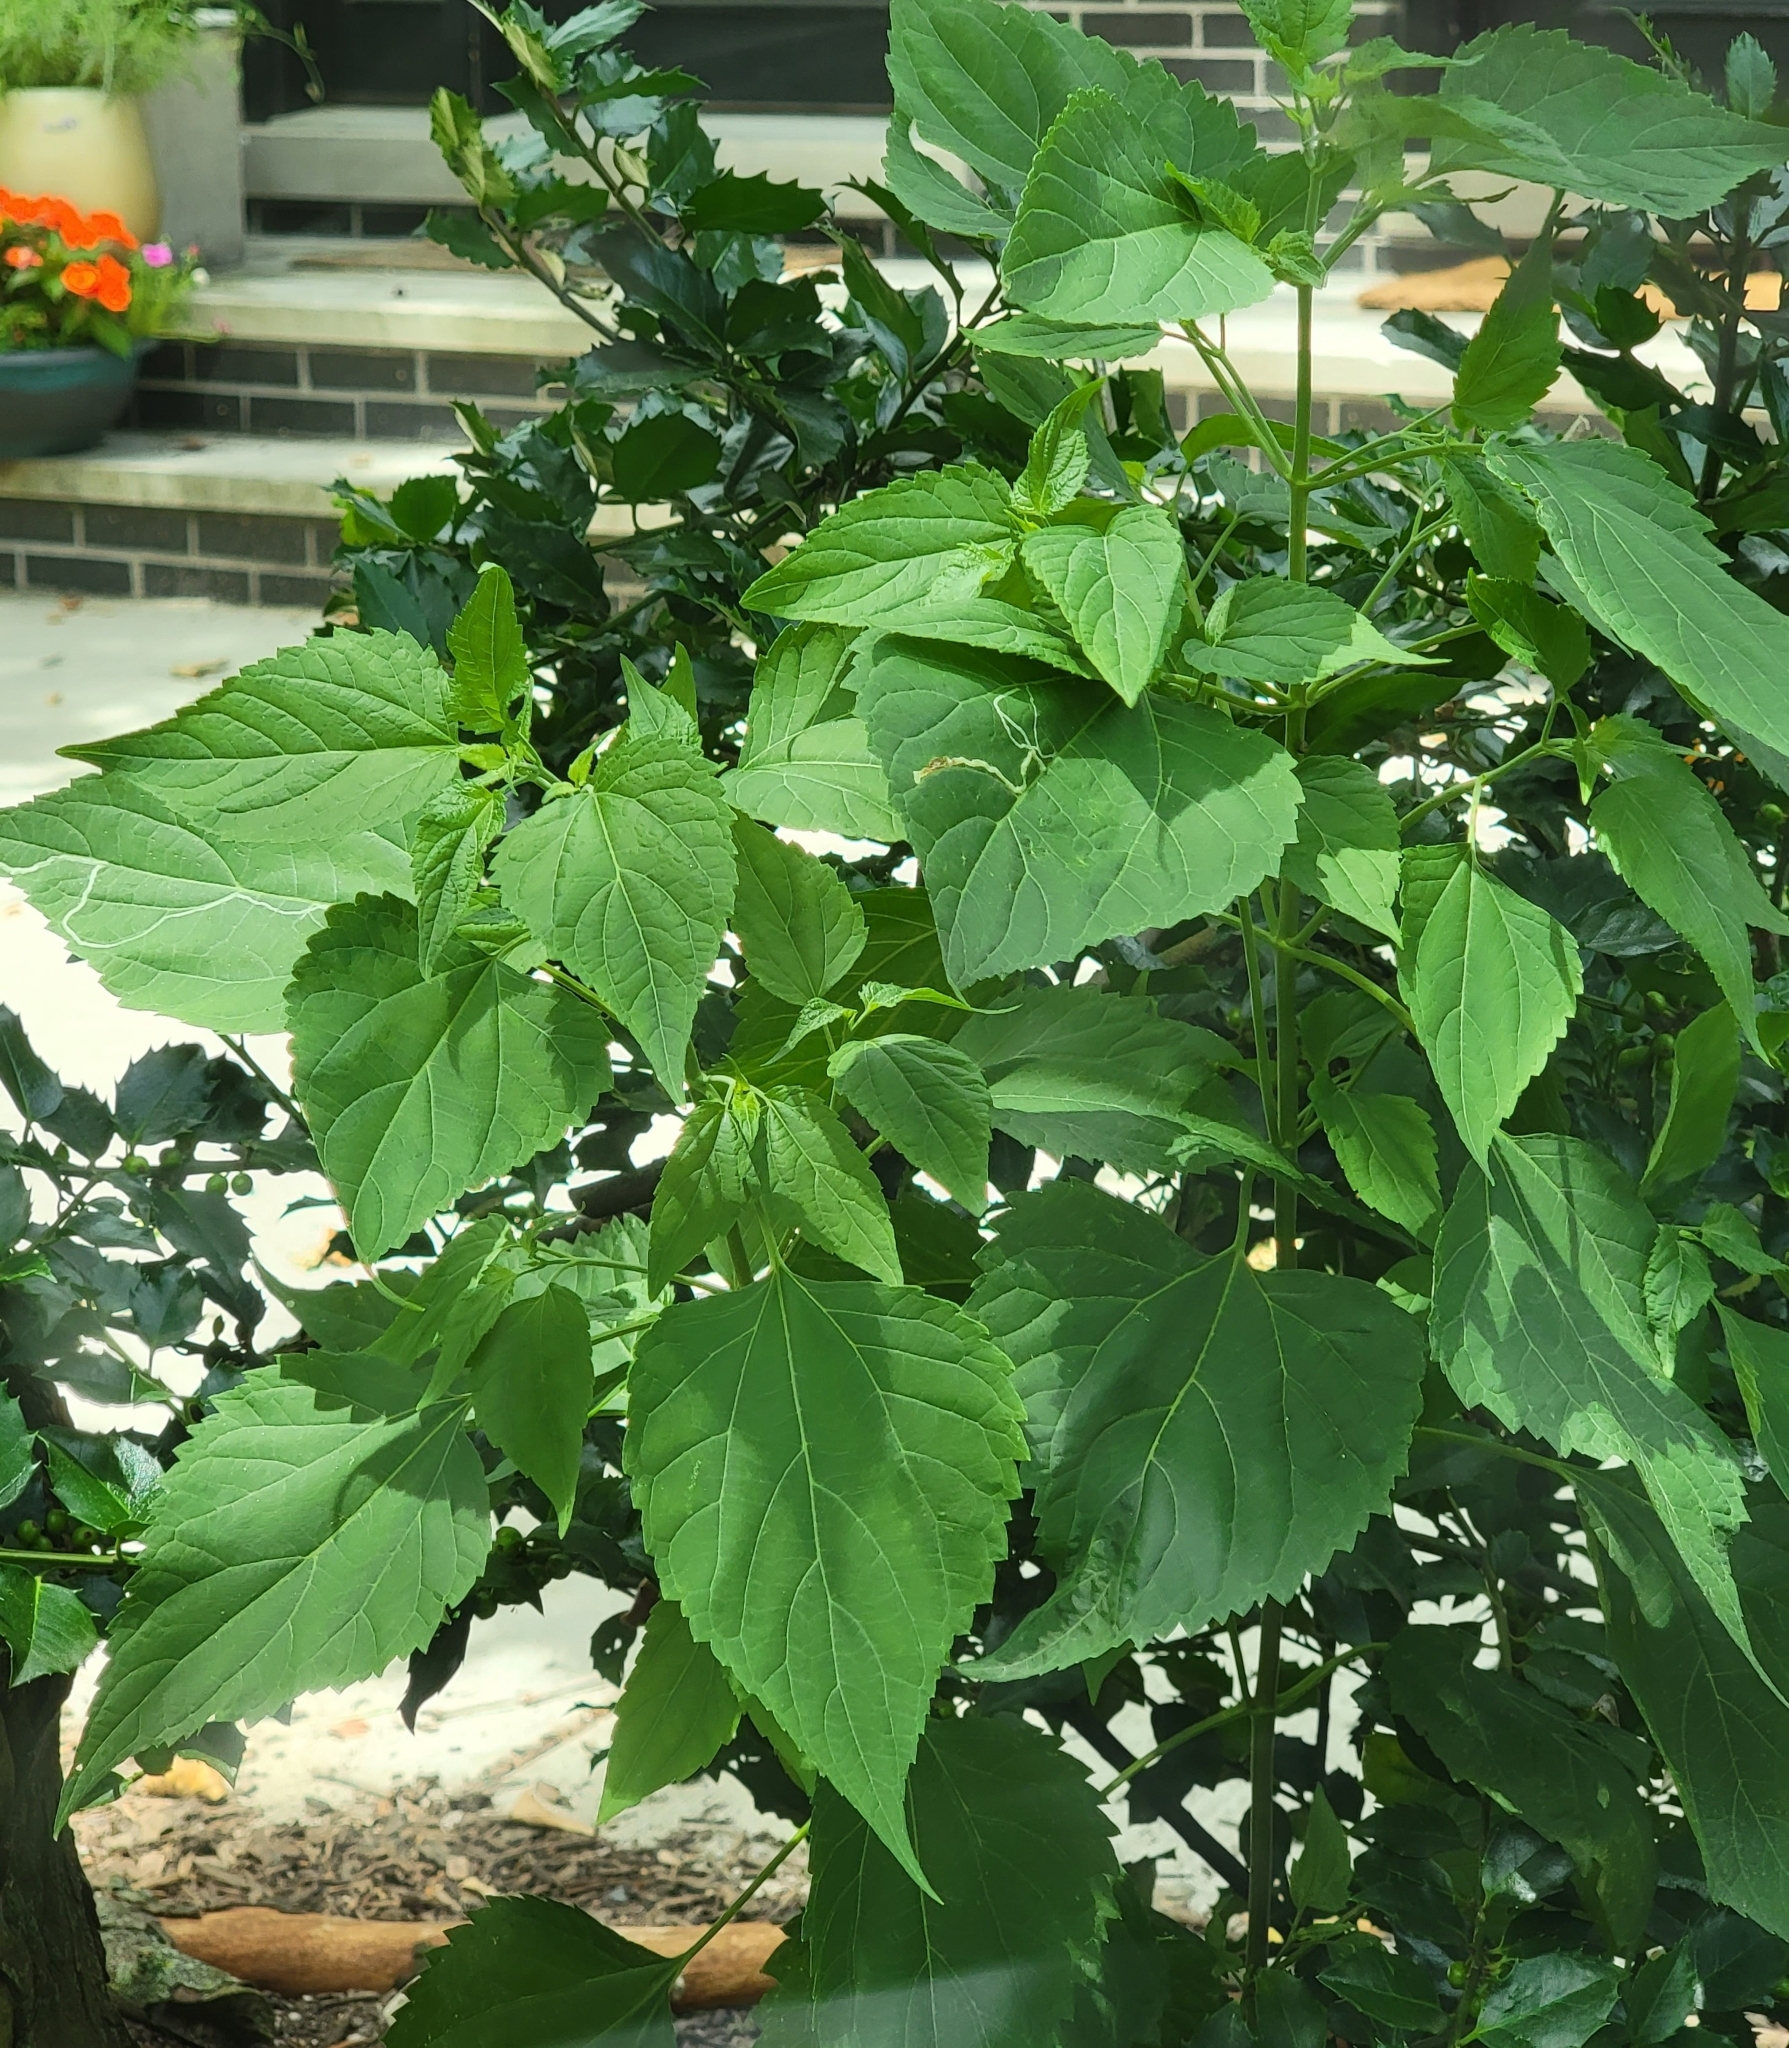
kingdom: Plantae
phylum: Tracheophyta
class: Magnoliopsida
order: Asterales
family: Asteraceae
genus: Ageratina
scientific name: Ageratina altissima
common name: White snakeroot
